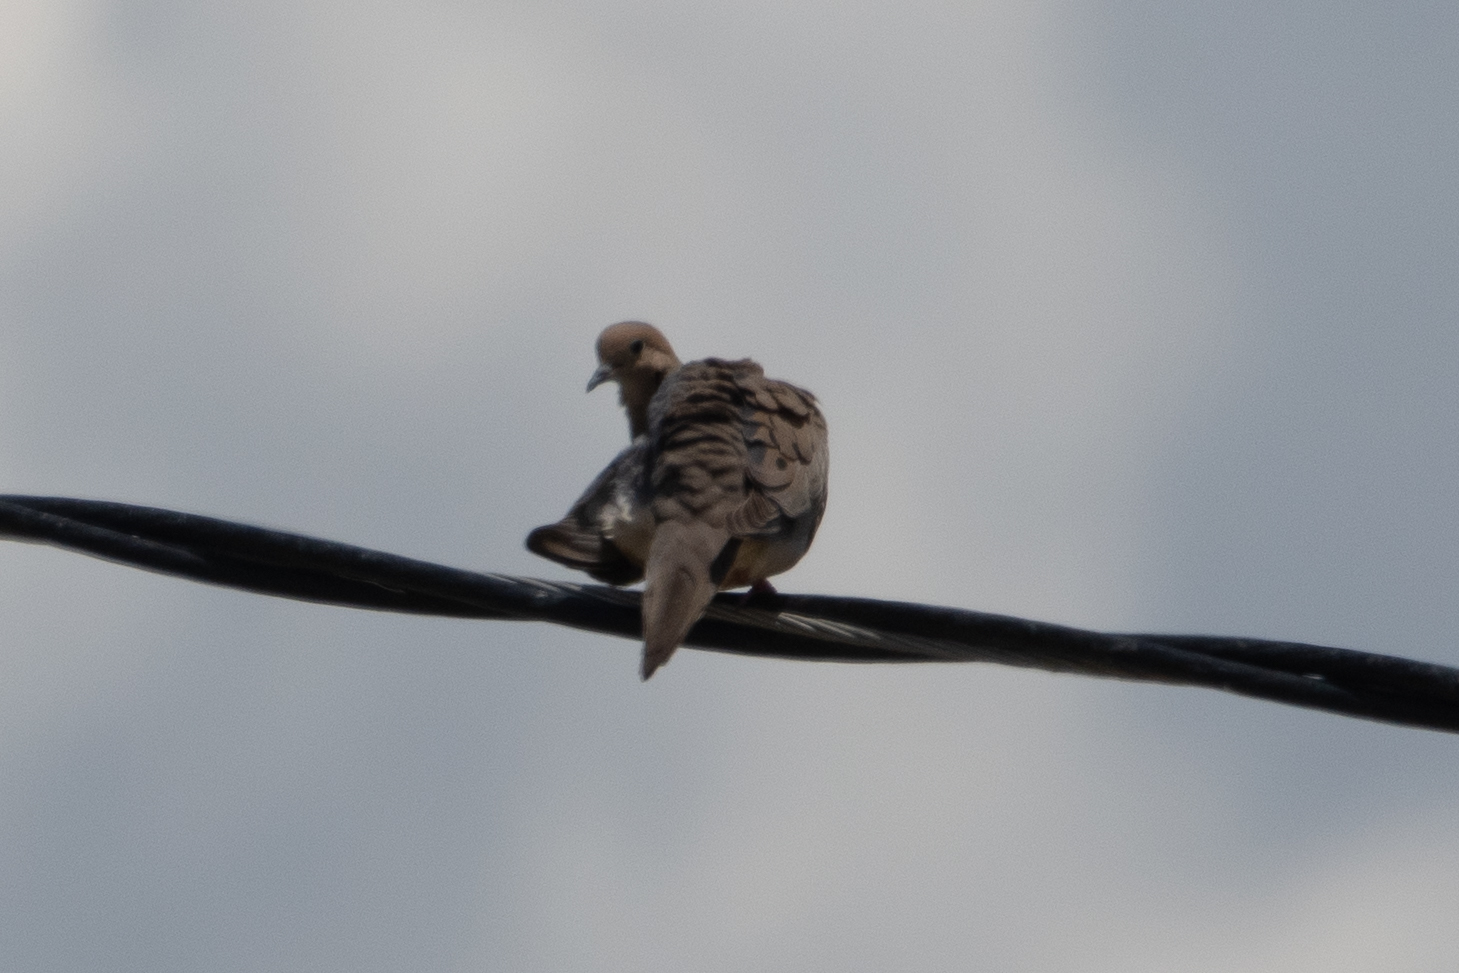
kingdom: Animalia
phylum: Chordata
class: Aves
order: Columbiformes
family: Columbidae
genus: Zenaida
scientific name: Zenaida macroura
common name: Mourning dove
